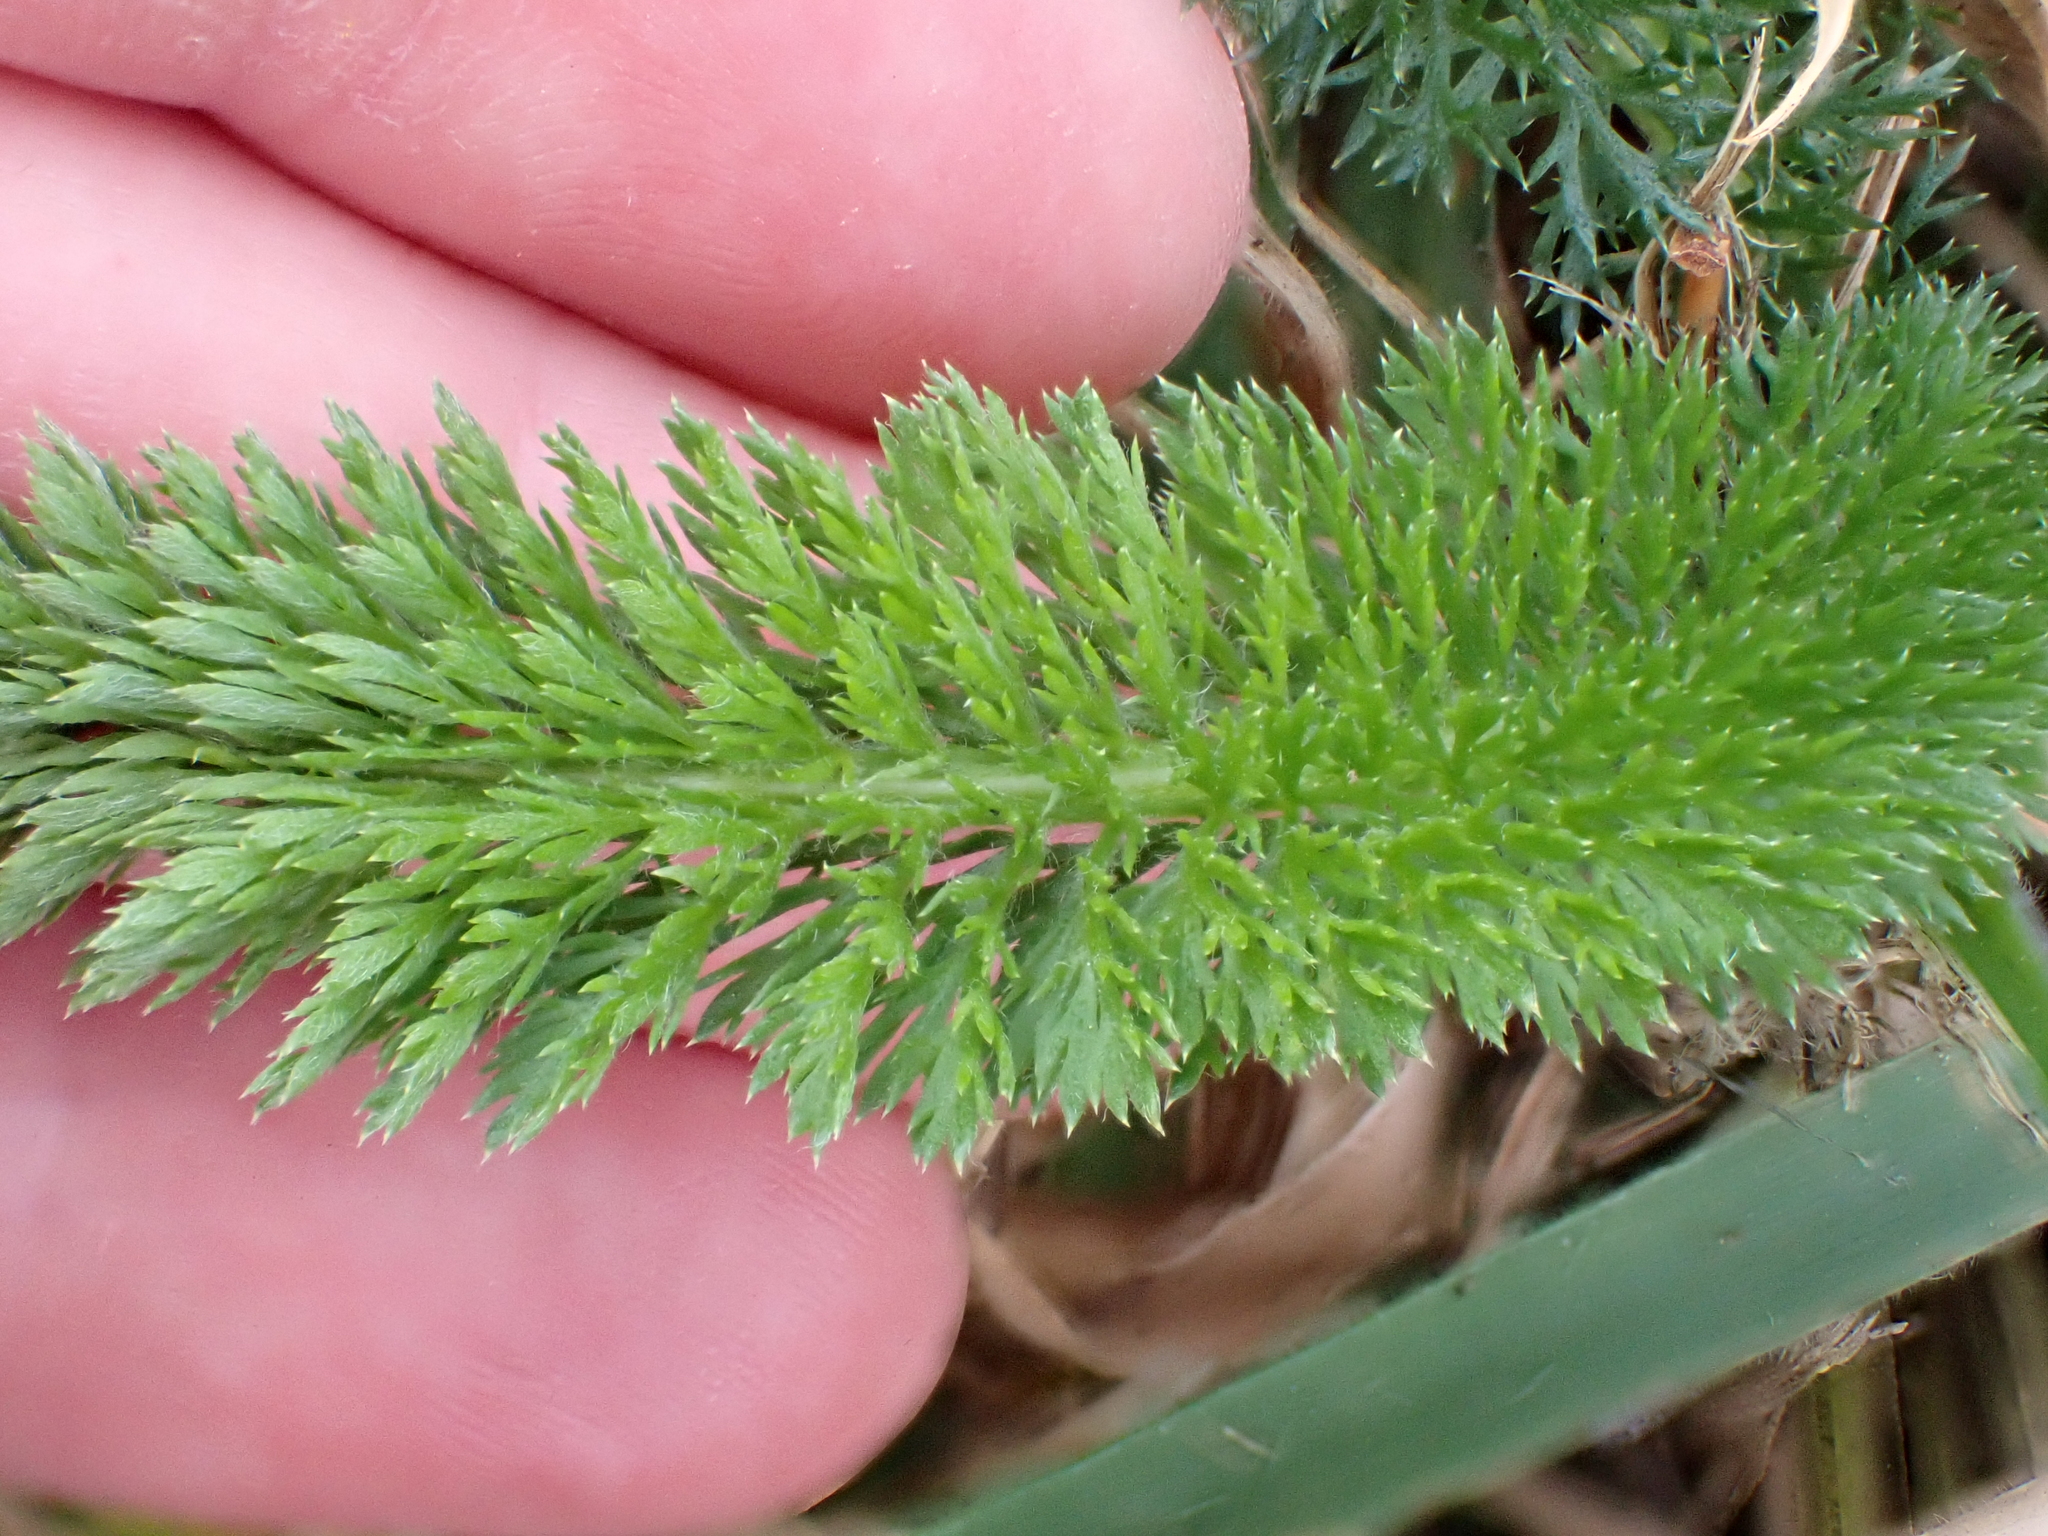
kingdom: Plantae
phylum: Tracheophyta
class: Magnoliopsida
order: Asterales
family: Asteraceae
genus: Achillea
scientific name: Achillea millefolium
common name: Yarrow
